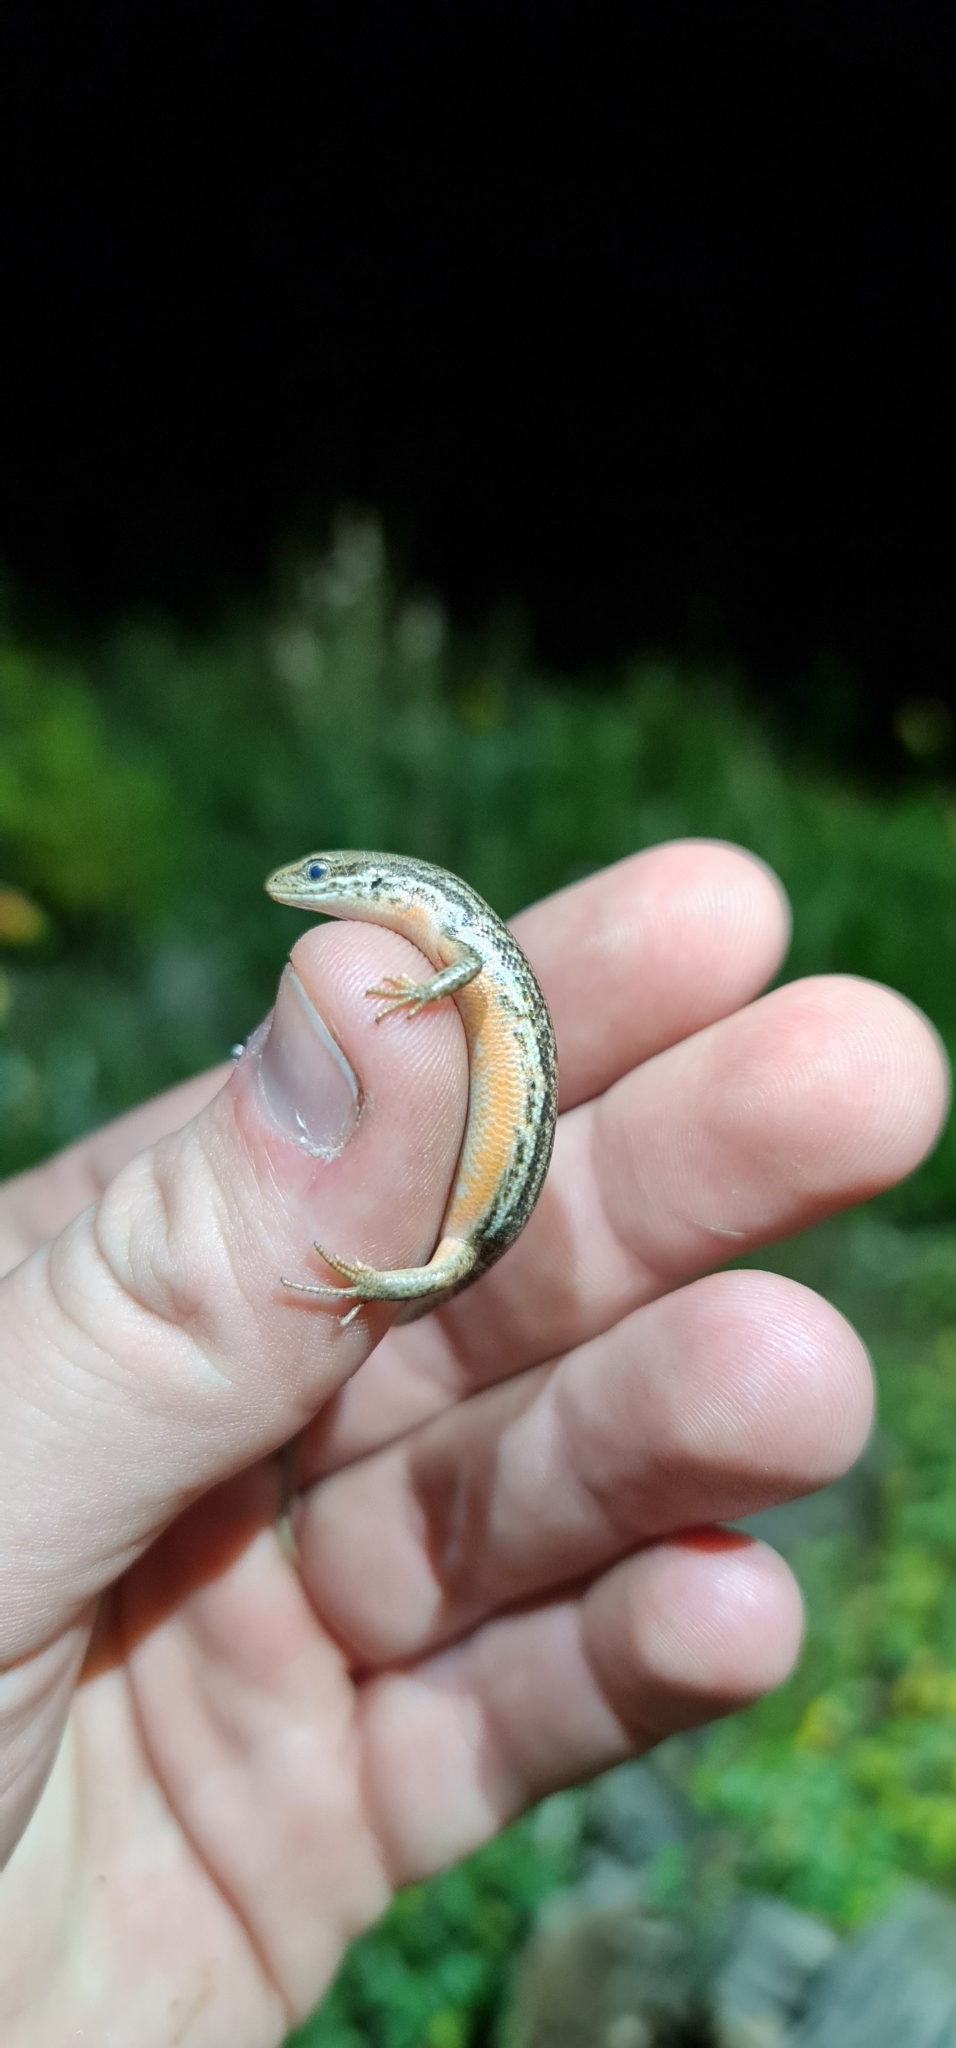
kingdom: Animalia
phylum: Chordata
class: Squamata
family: Scincidae
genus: Morethia
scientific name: Morethia adelaidensis
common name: Saltbush morethia skink
